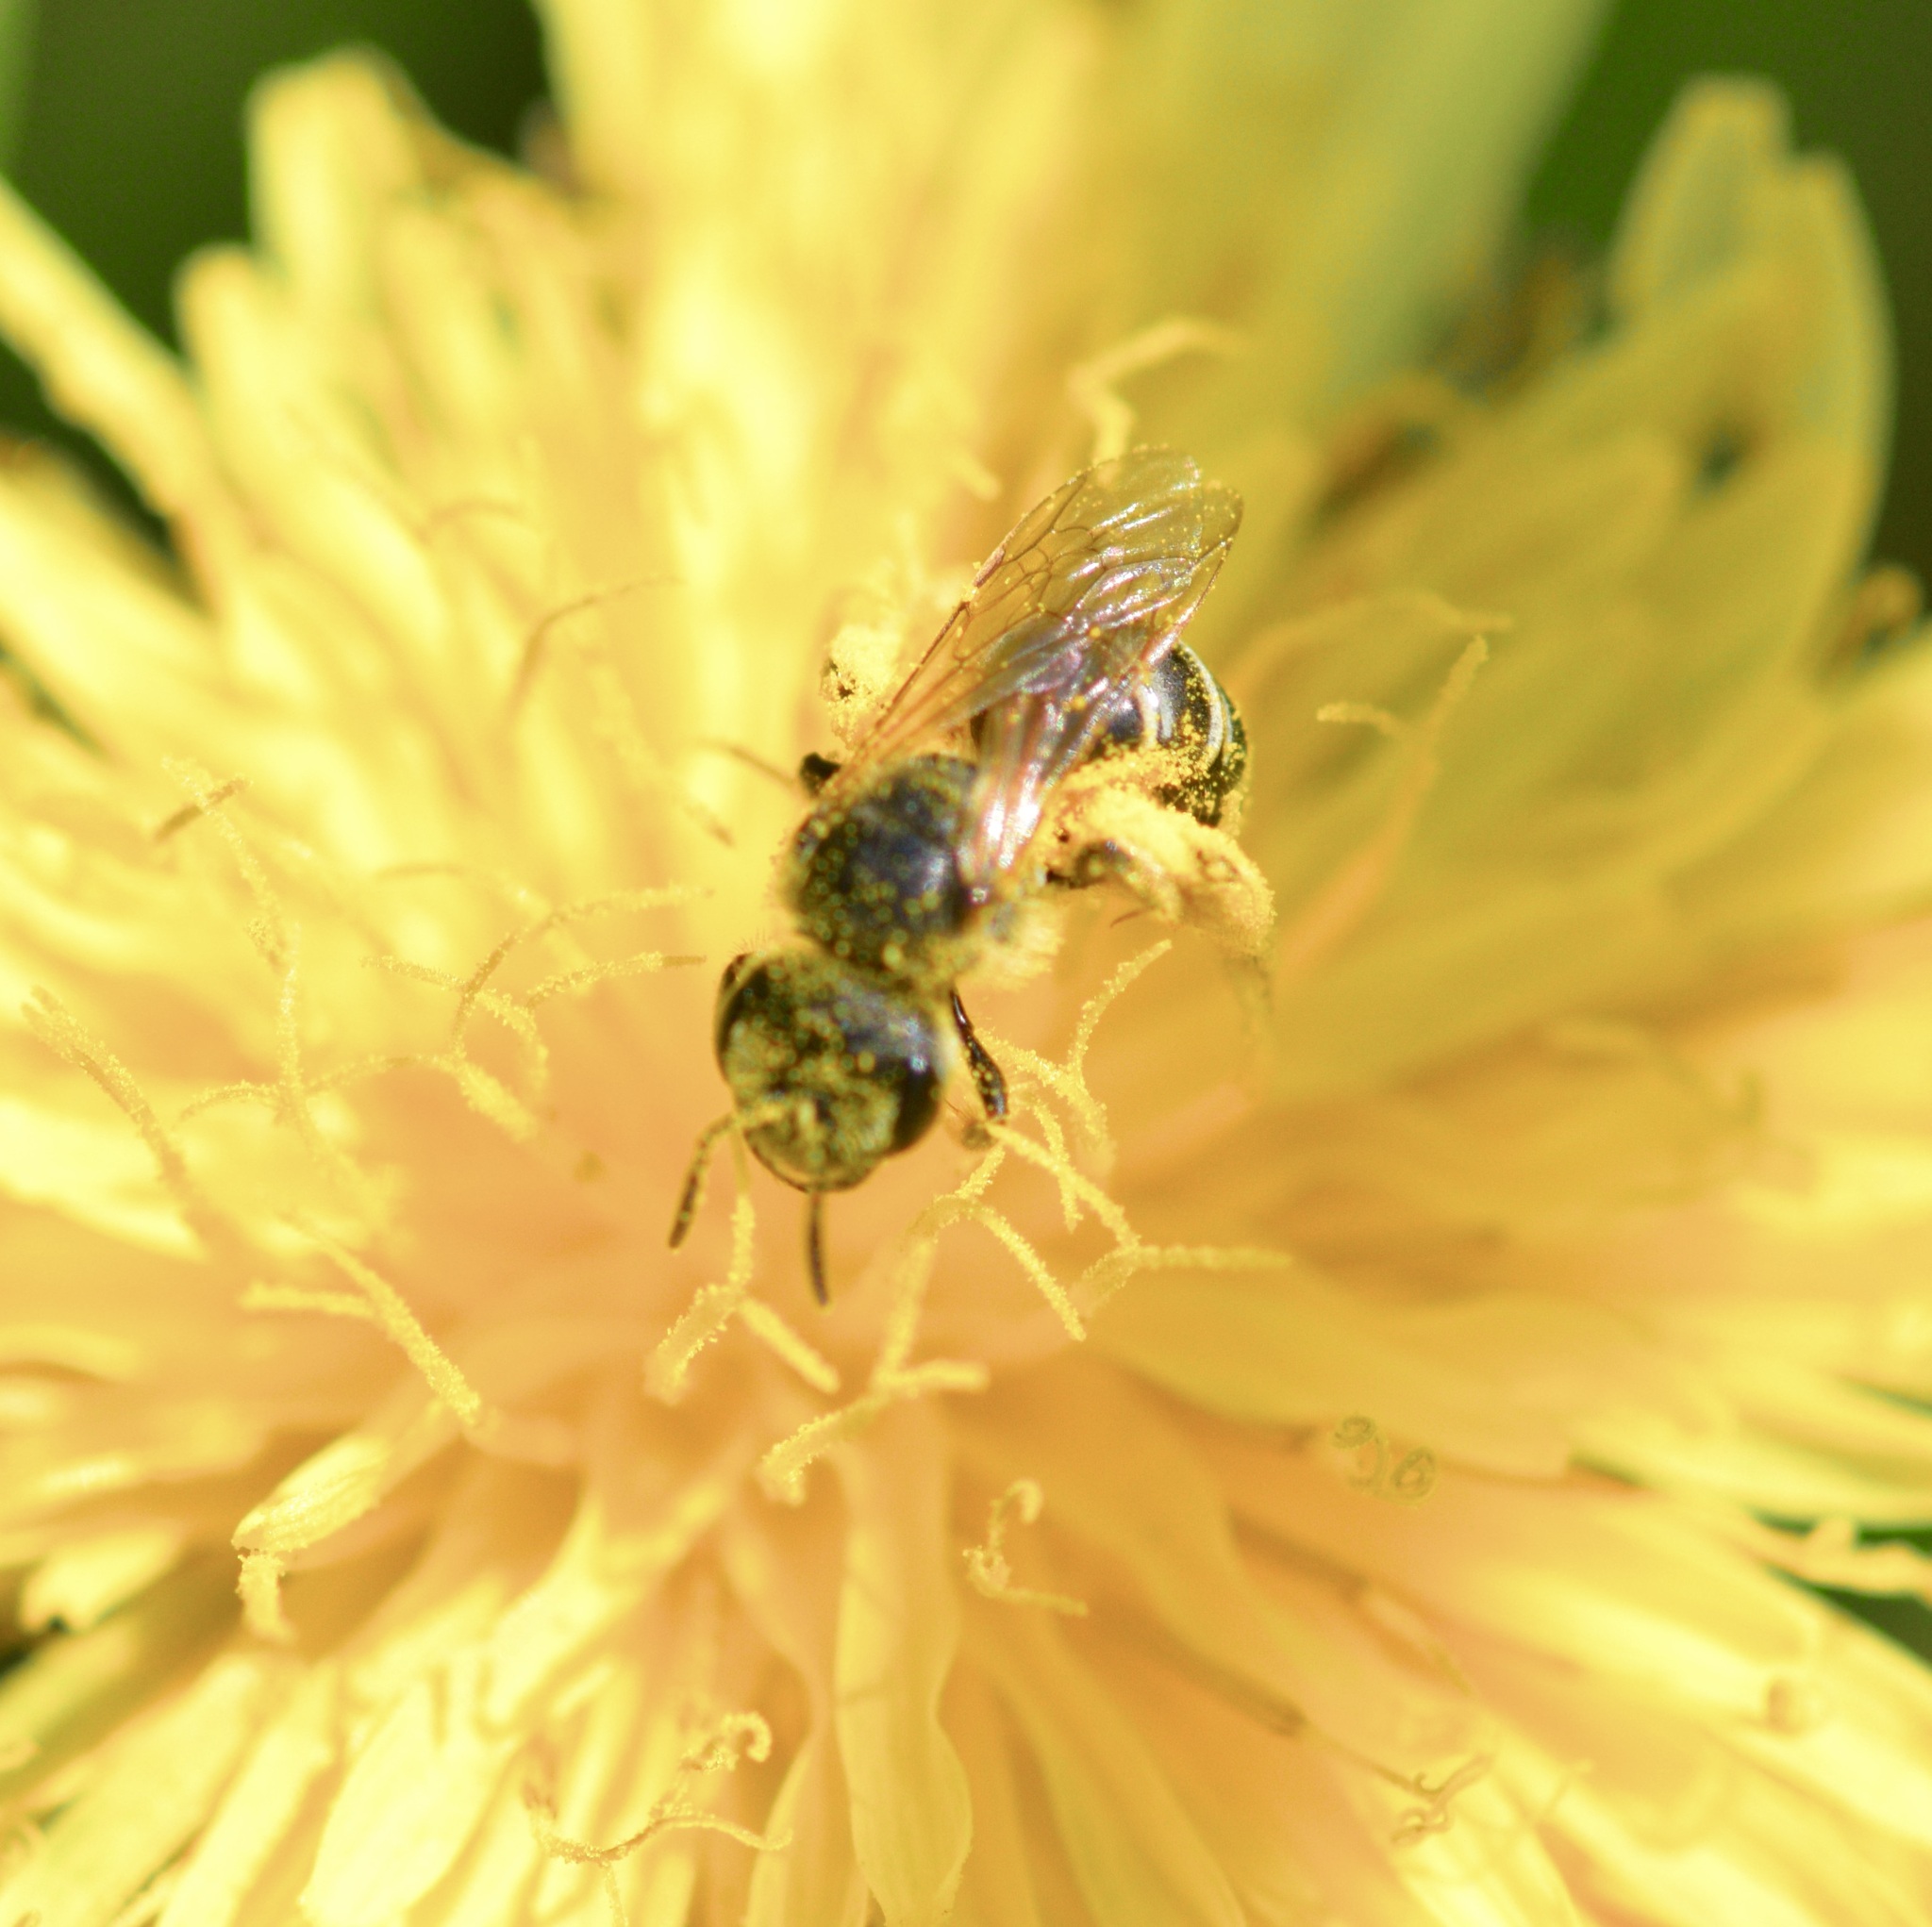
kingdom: Animalia
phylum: Arthropoda
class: Insecta
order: Hymenoptera
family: Halictidae
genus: Halictus
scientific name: Halictus ligatus
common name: Ligated furrow bee
